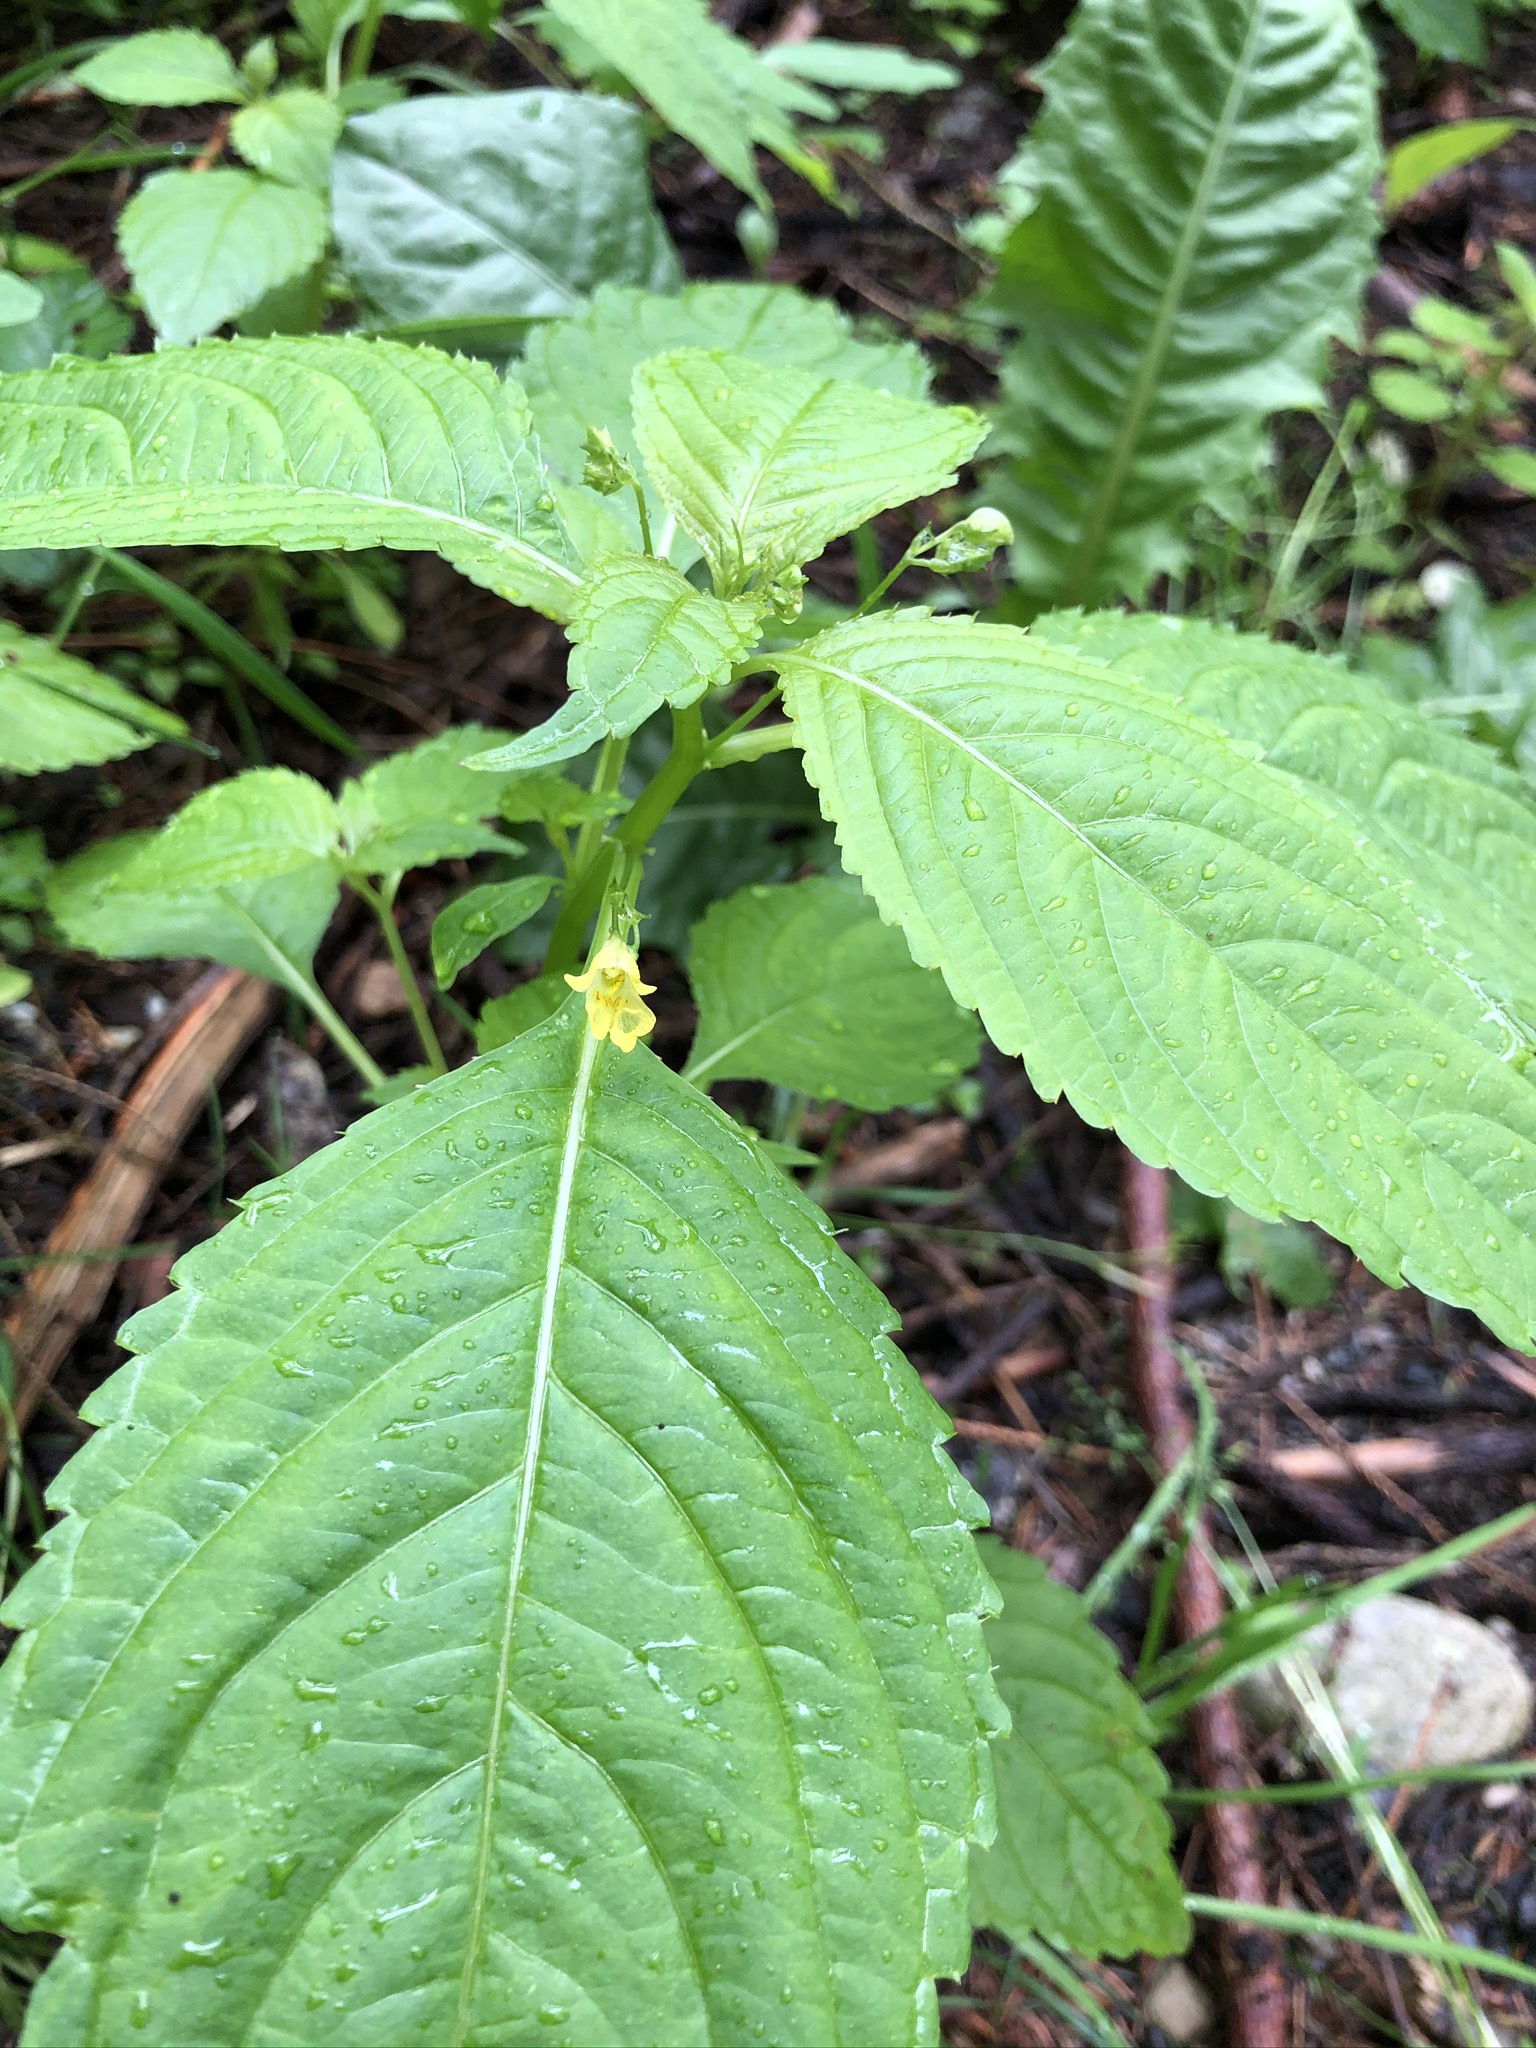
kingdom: Plantae
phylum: Tracheophyta
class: Magnoliopsida
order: Ericales
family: Balsaminaceae
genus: Impatiens
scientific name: Impatiens parviflora
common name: Small balsam
